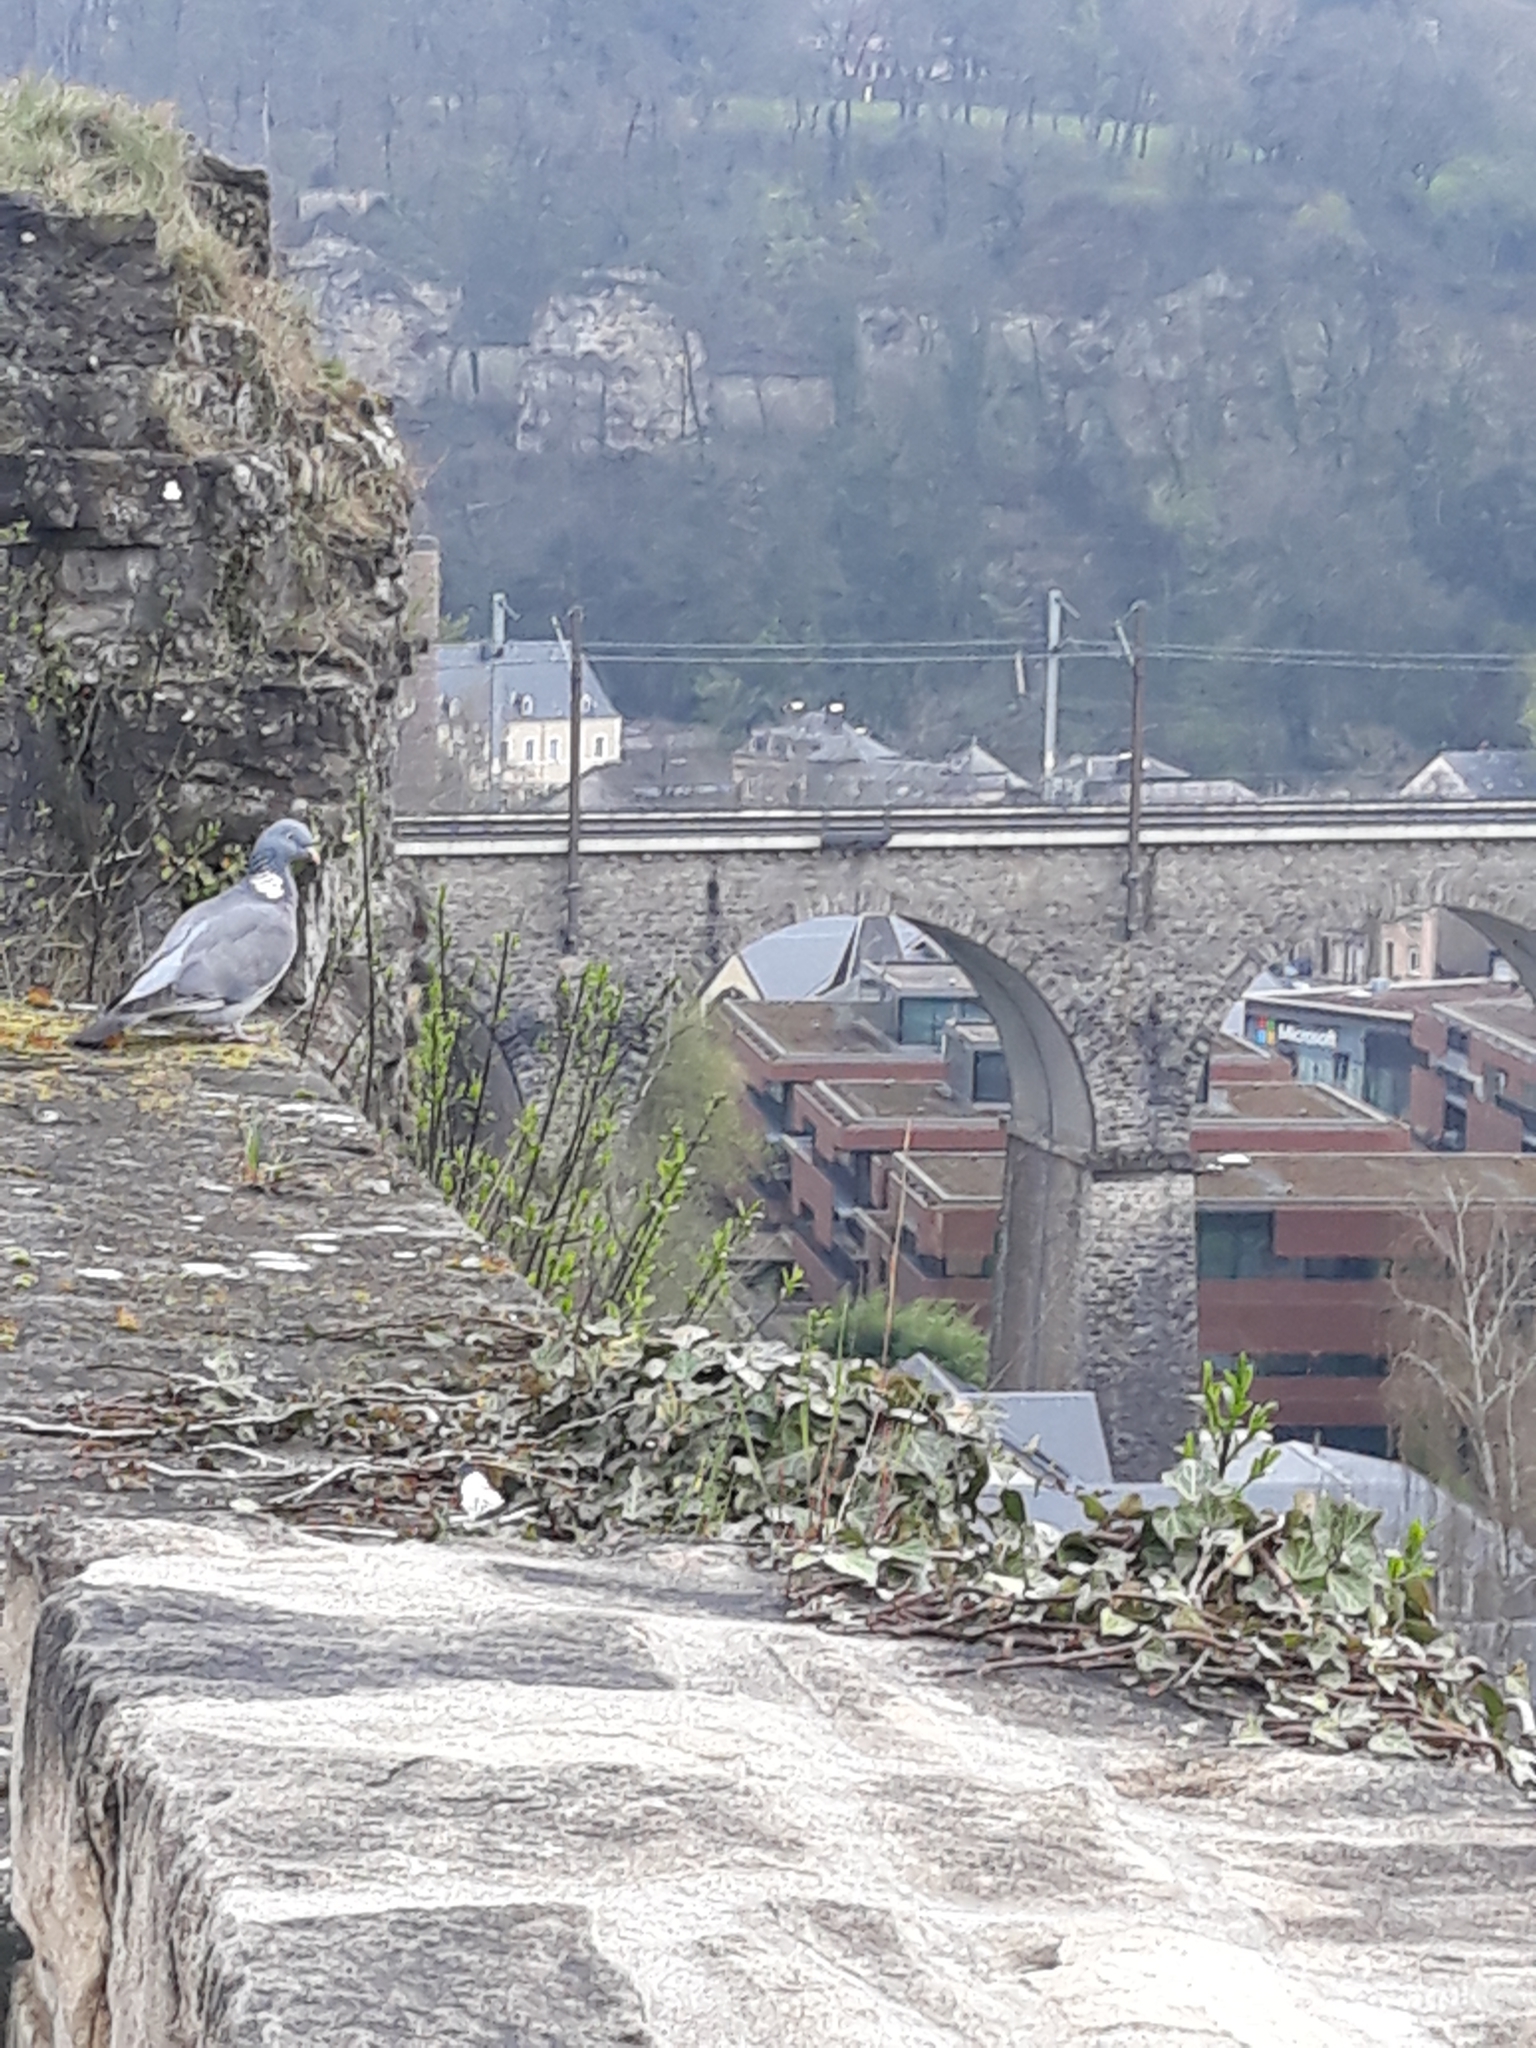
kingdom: Animalia
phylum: Chordata
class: Aves
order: Columbiformes
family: Columbidae
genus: Columba
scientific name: Columba palumbus
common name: Common wood pigeon
